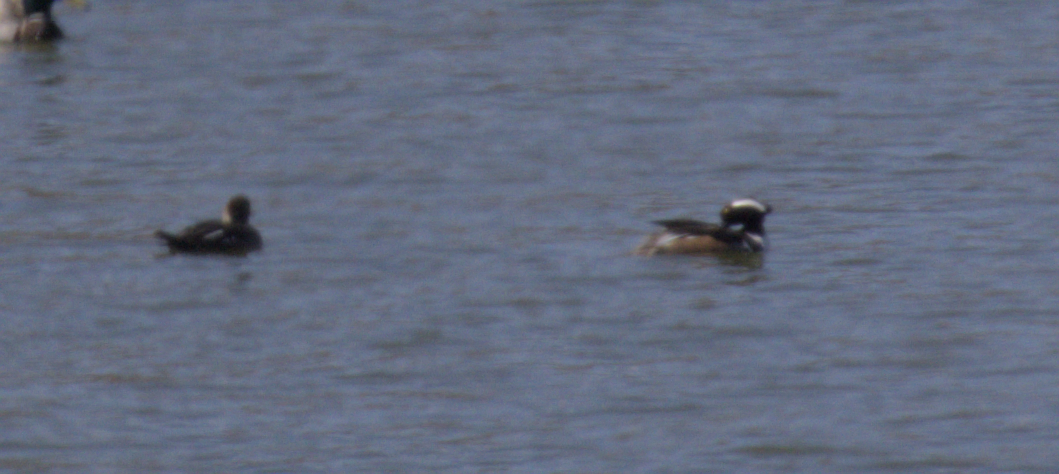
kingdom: Animalia
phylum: Chordata
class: Aves
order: Anseriformes
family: Anatidae
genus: Lophodytes
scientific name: Lophodytes cucullatus
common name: Hooded merganser
